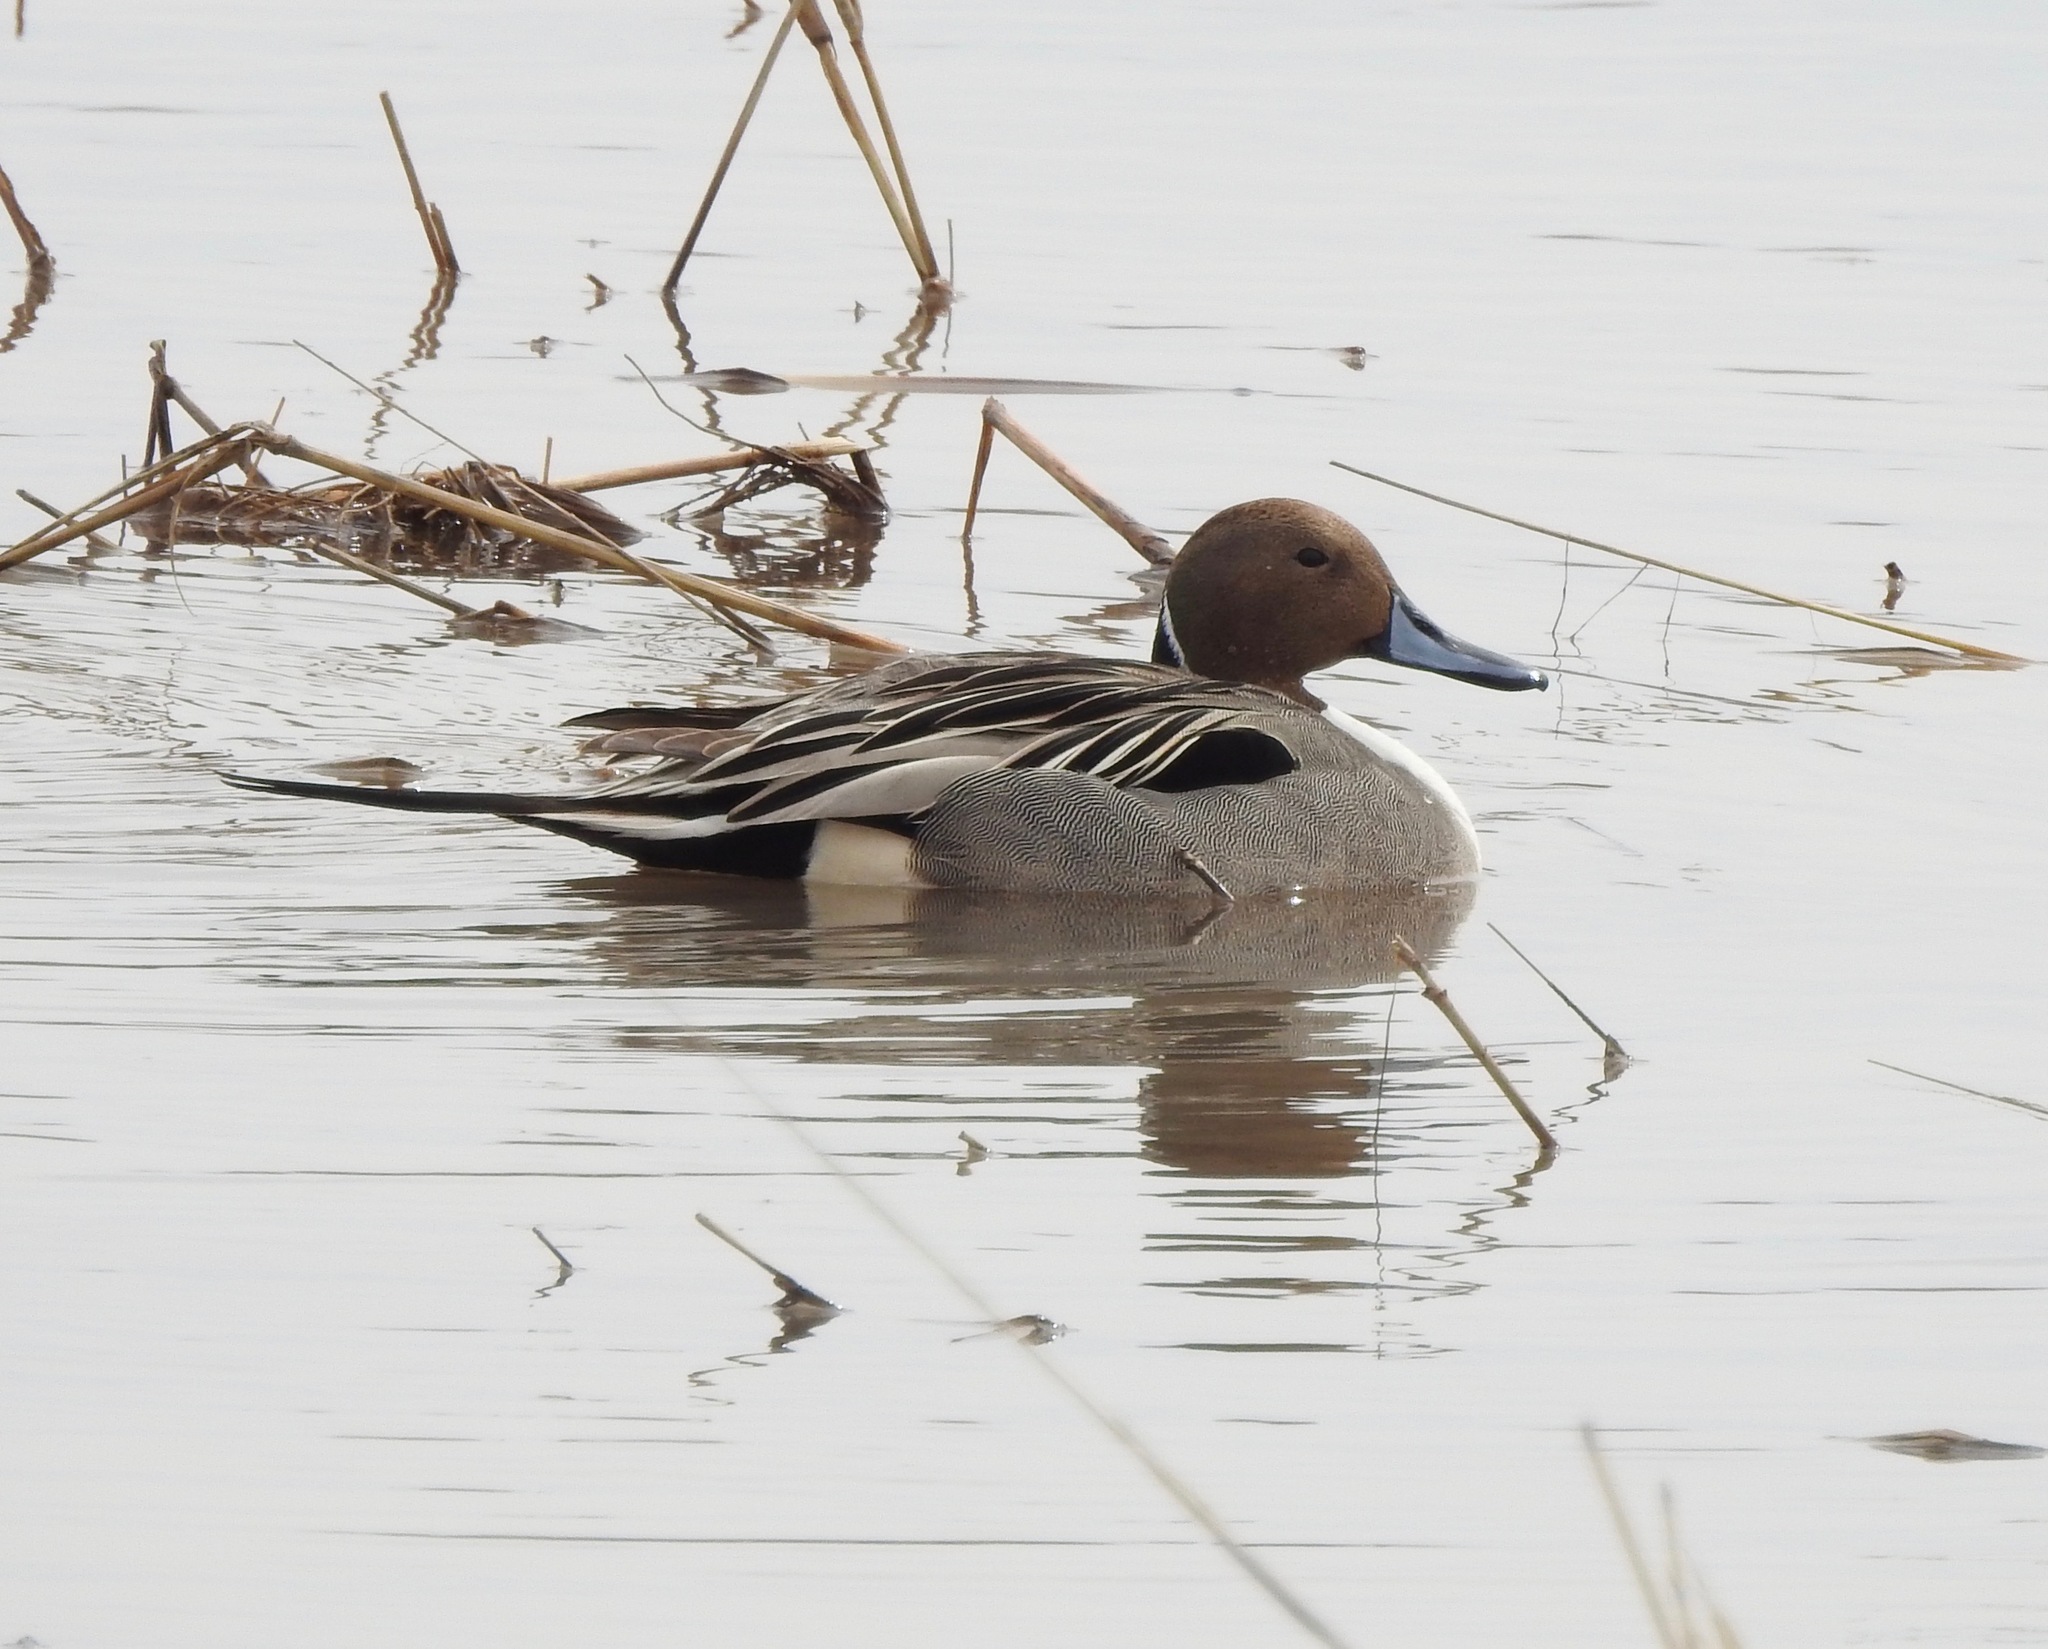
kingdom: Animalia
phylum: Chordata
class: Aves
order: Anseriformes
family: Anatidae
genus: Anas
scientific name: Anas acuta
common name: Northern pintail
